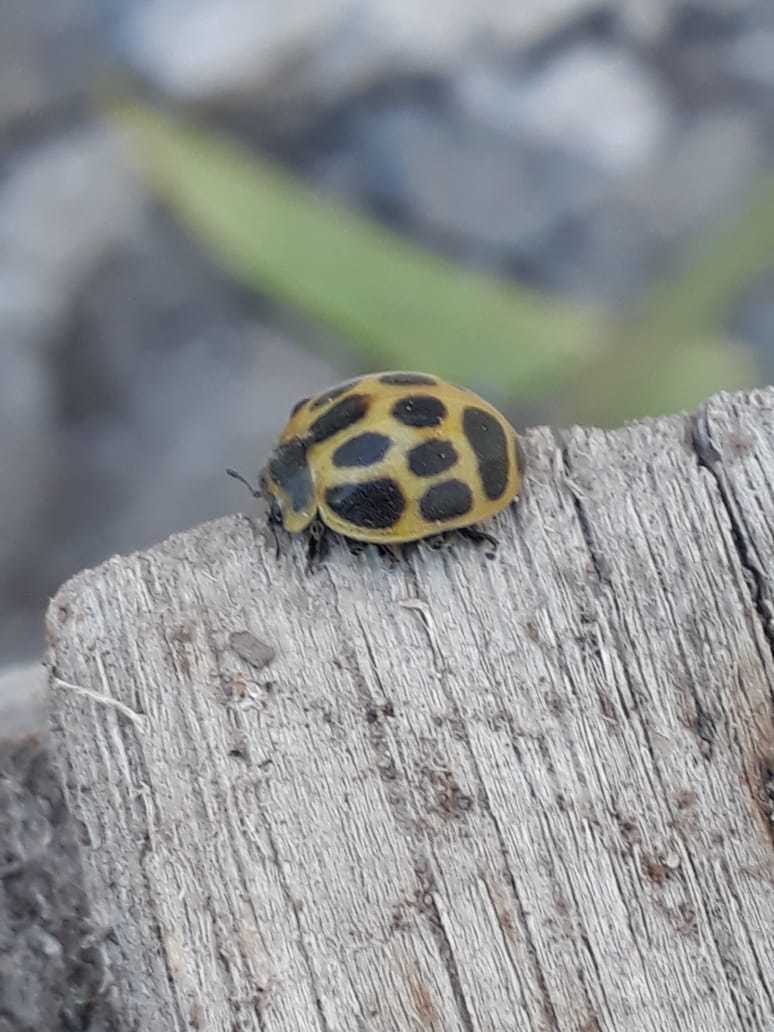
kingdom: Animalia
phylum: Arthropoda
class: Insecta
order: Coleoptera
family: Coccinellidae
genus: Epilachna
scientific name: Epilachna
